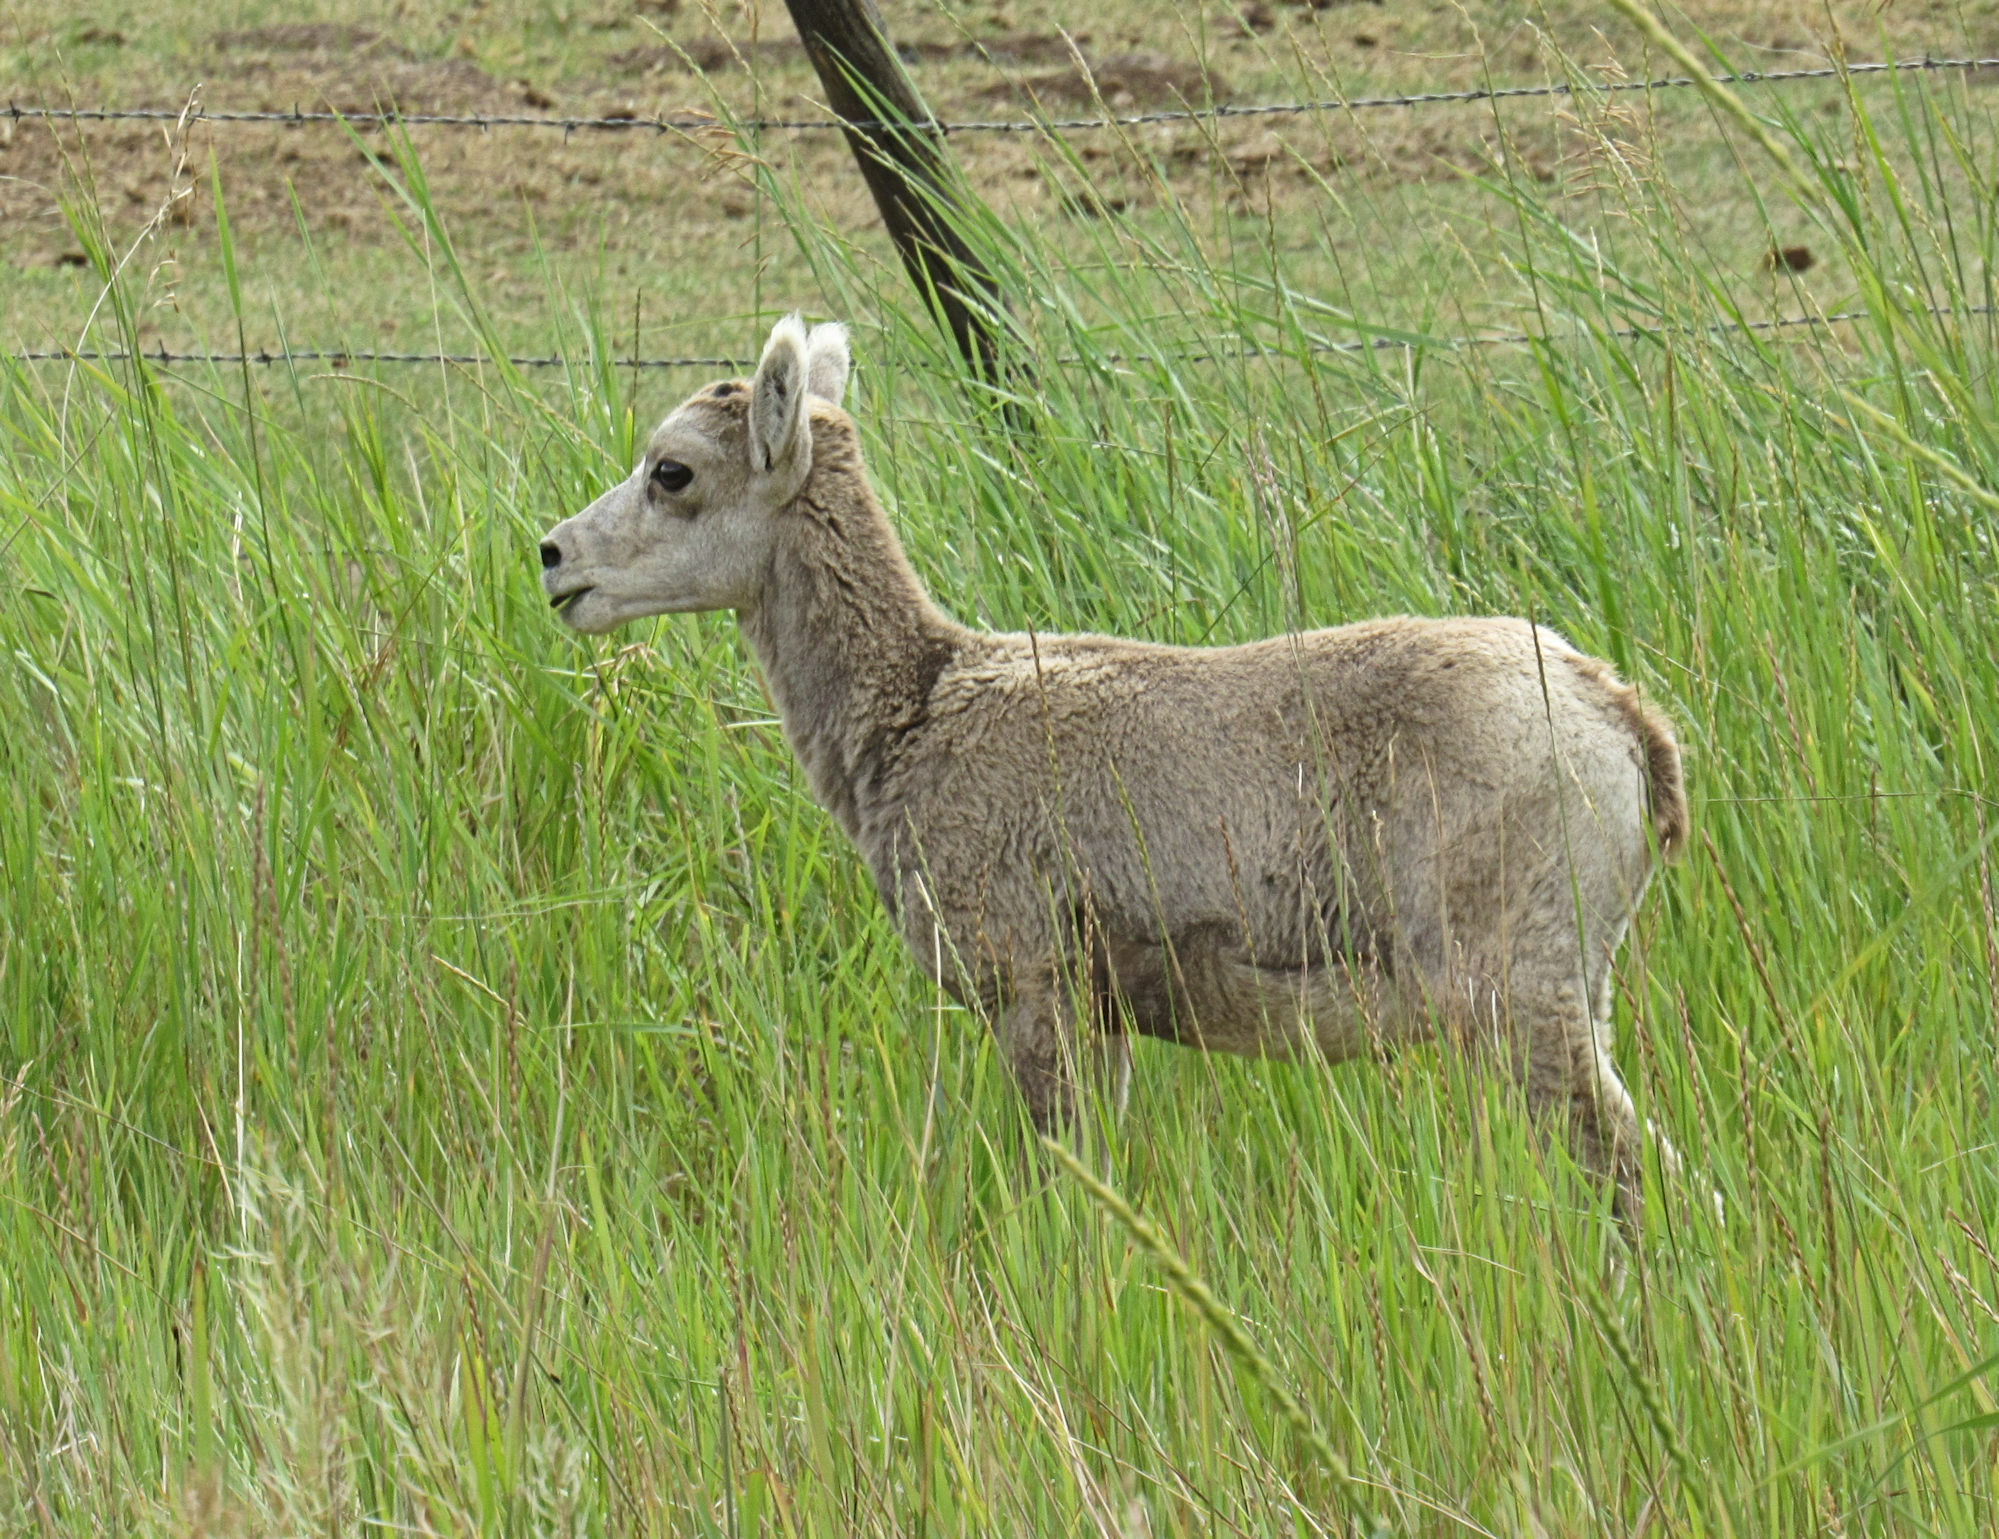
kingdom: Animalia
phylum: Chordata
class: Mammalia
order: Artiodactyla
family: Bovidae
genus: Ovis
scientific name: Ovis canadensis
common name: Bighorn sheep
